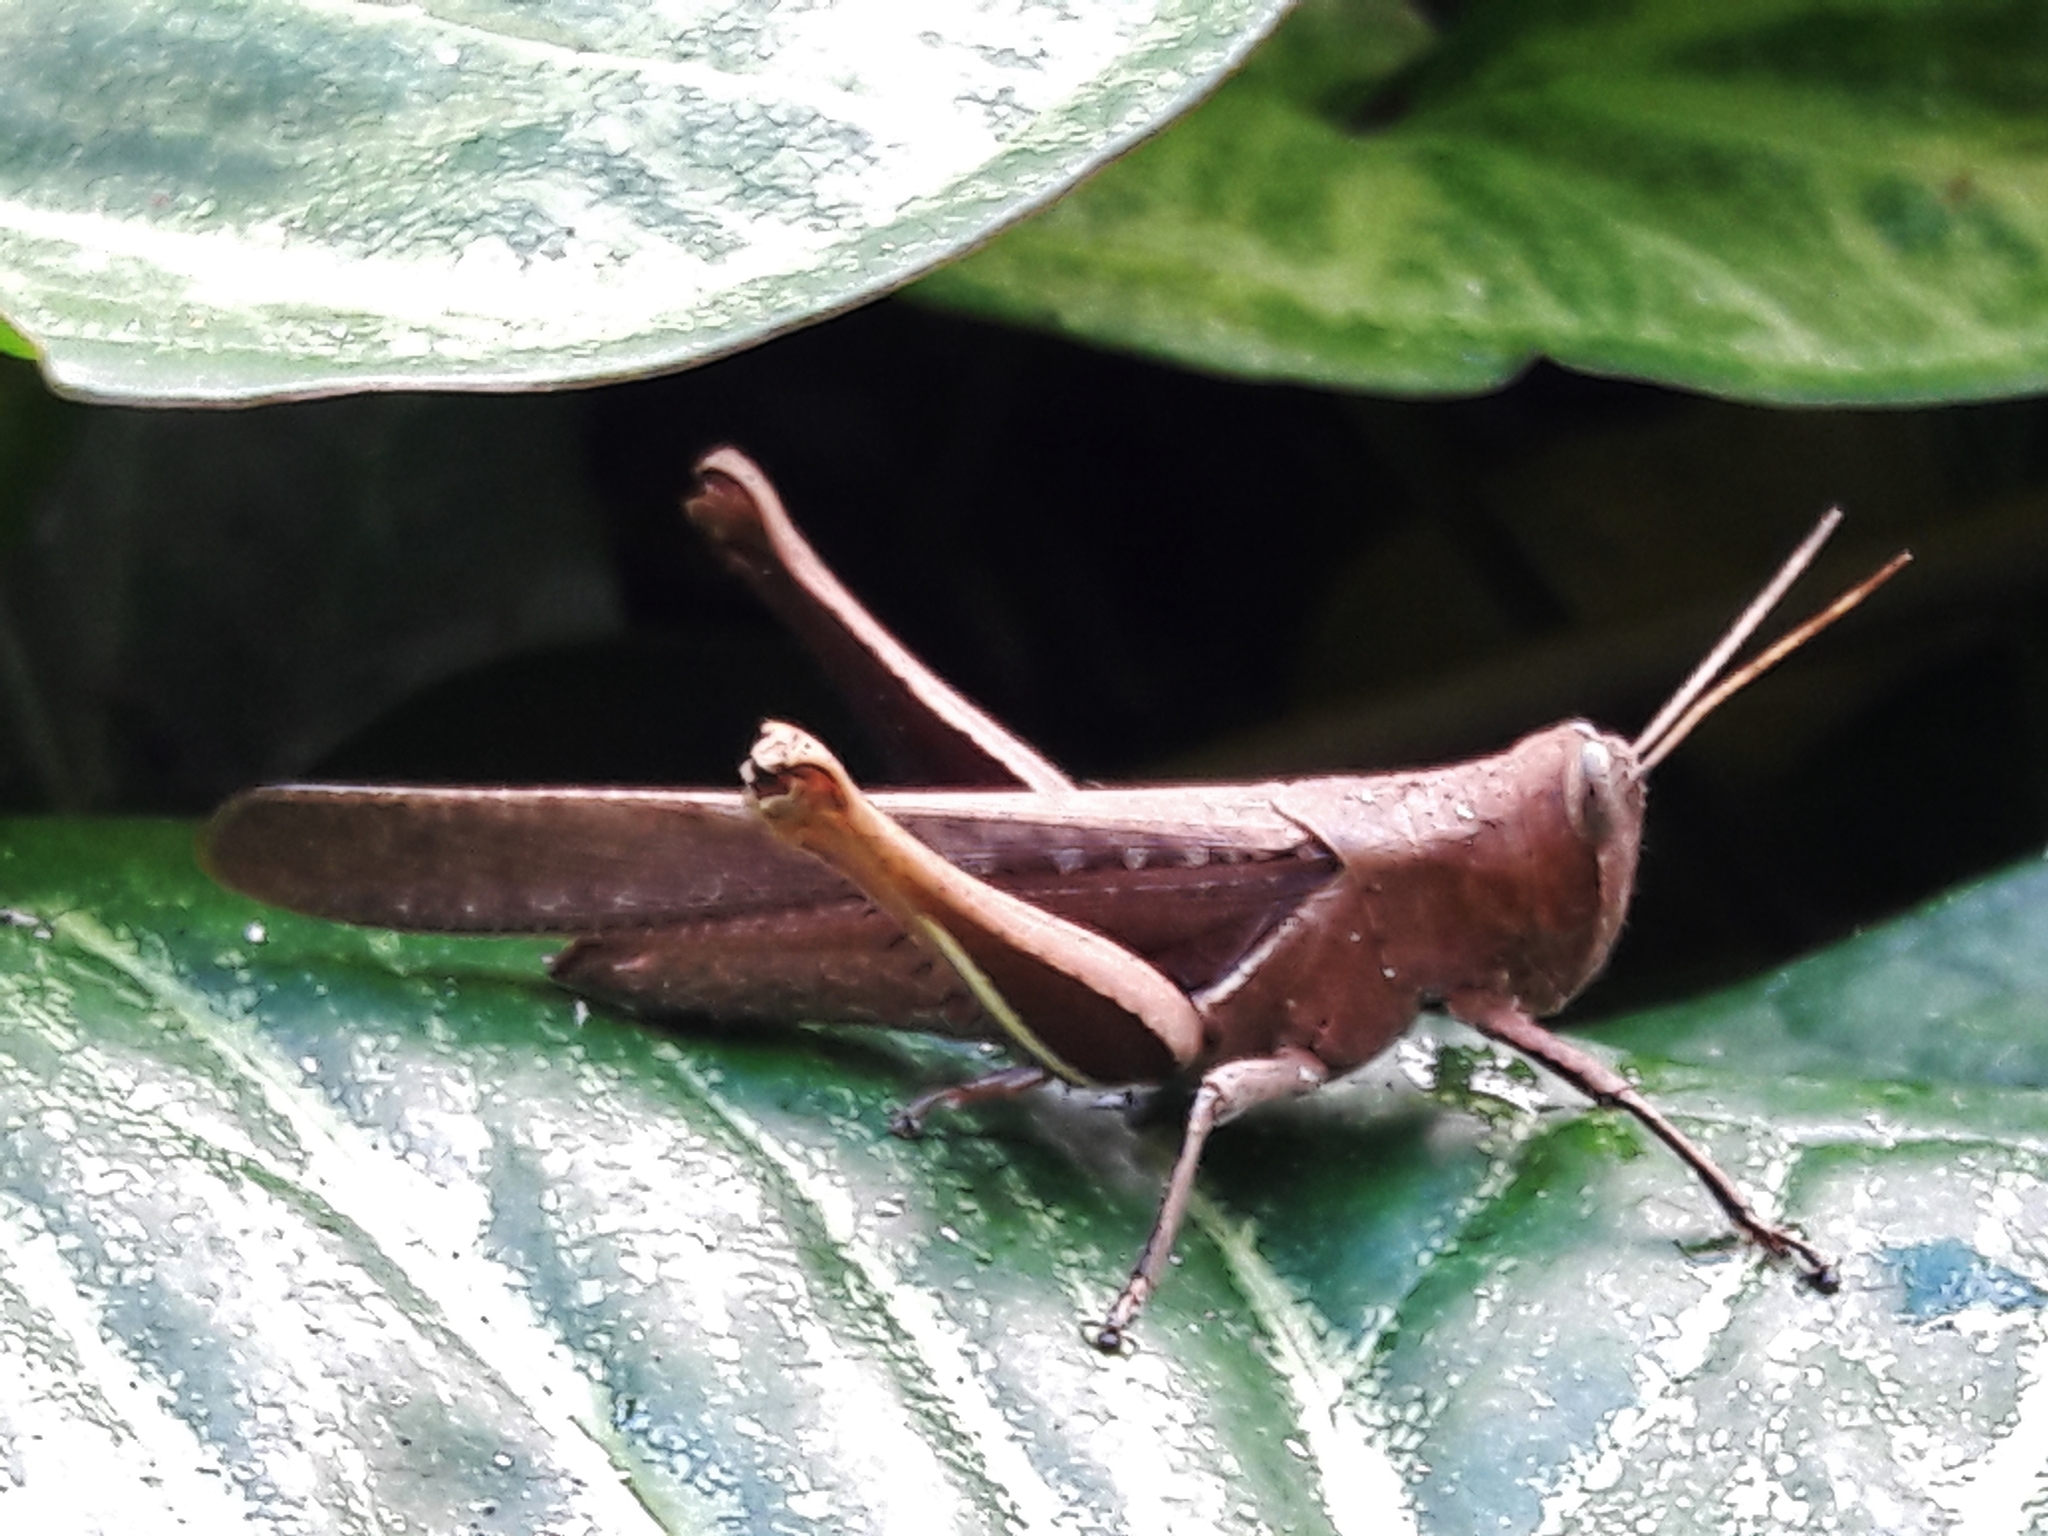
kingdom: Animalia
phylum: Arthropoda
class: Insecta
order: Orthoptera
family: Acrididae
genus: Abracris
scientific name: Abracris flavolineata
